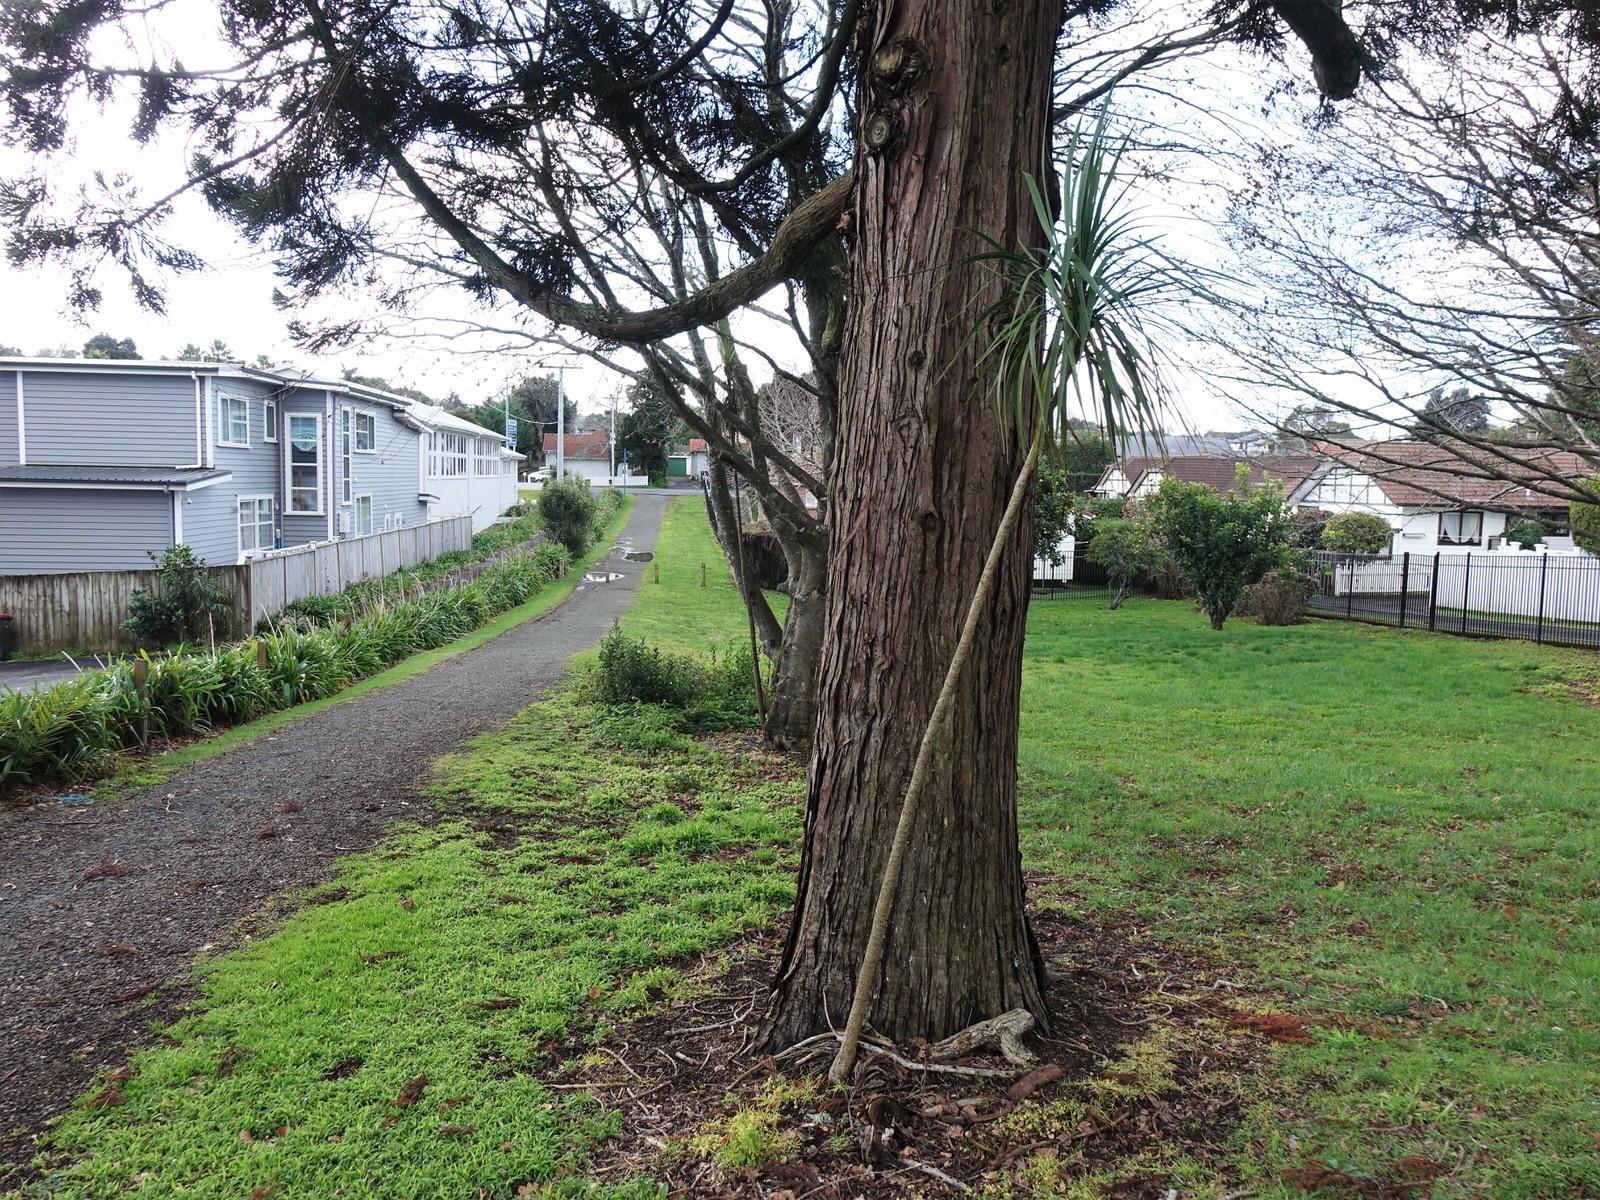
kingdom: Plantae
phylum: Tracheophyta
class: Liliopsida
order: Asparagales
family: Asparagaceae
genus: Cordyline
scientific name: Cordyline australis
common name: Cabbage-palm
